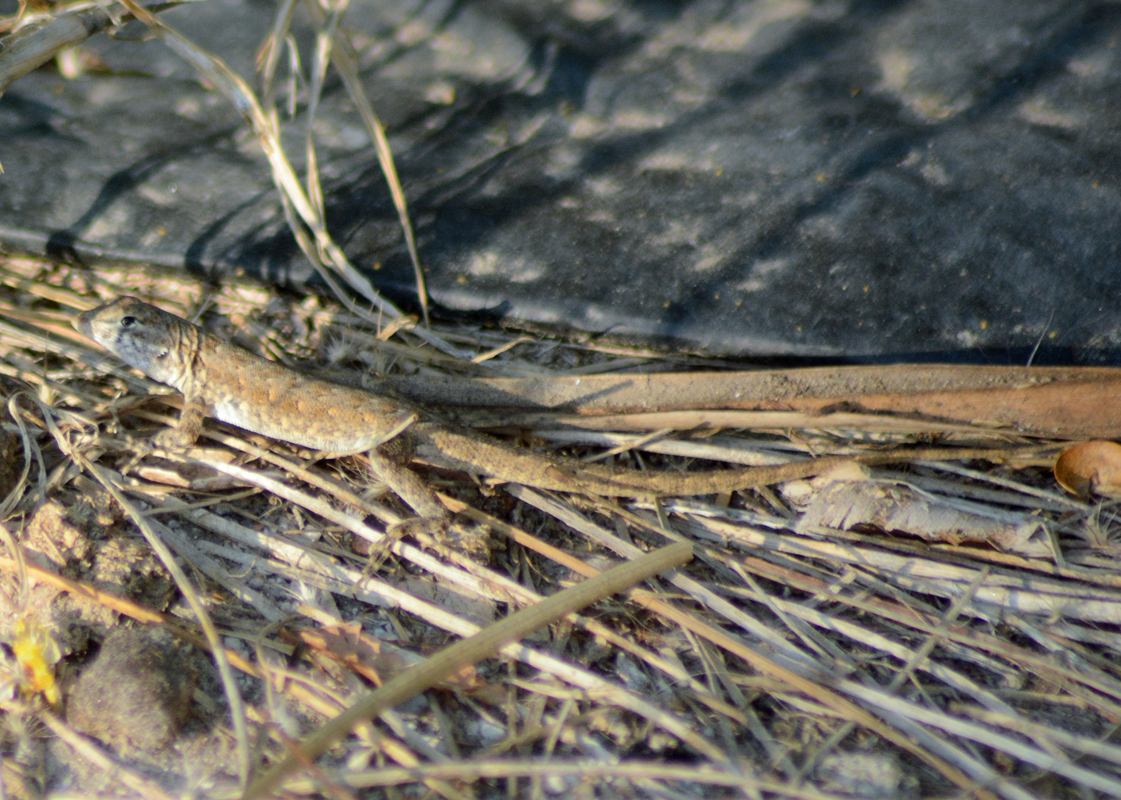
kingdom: Animalia
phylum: Chordata
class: Squamata
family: Phrynosomatidae
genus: Urosaurus
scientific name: Urosaurus nigricauda
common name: Baja california brush lizard
